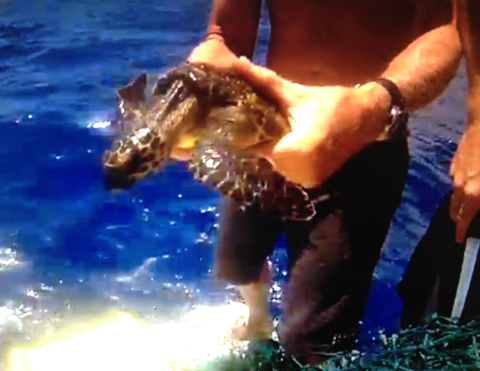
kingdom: Animalia
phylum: Chordata
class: Testudines
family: Cheloniidae
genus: Eretmochelys
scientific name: Eretmochelys imbricata
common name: Hawksbill turtle
